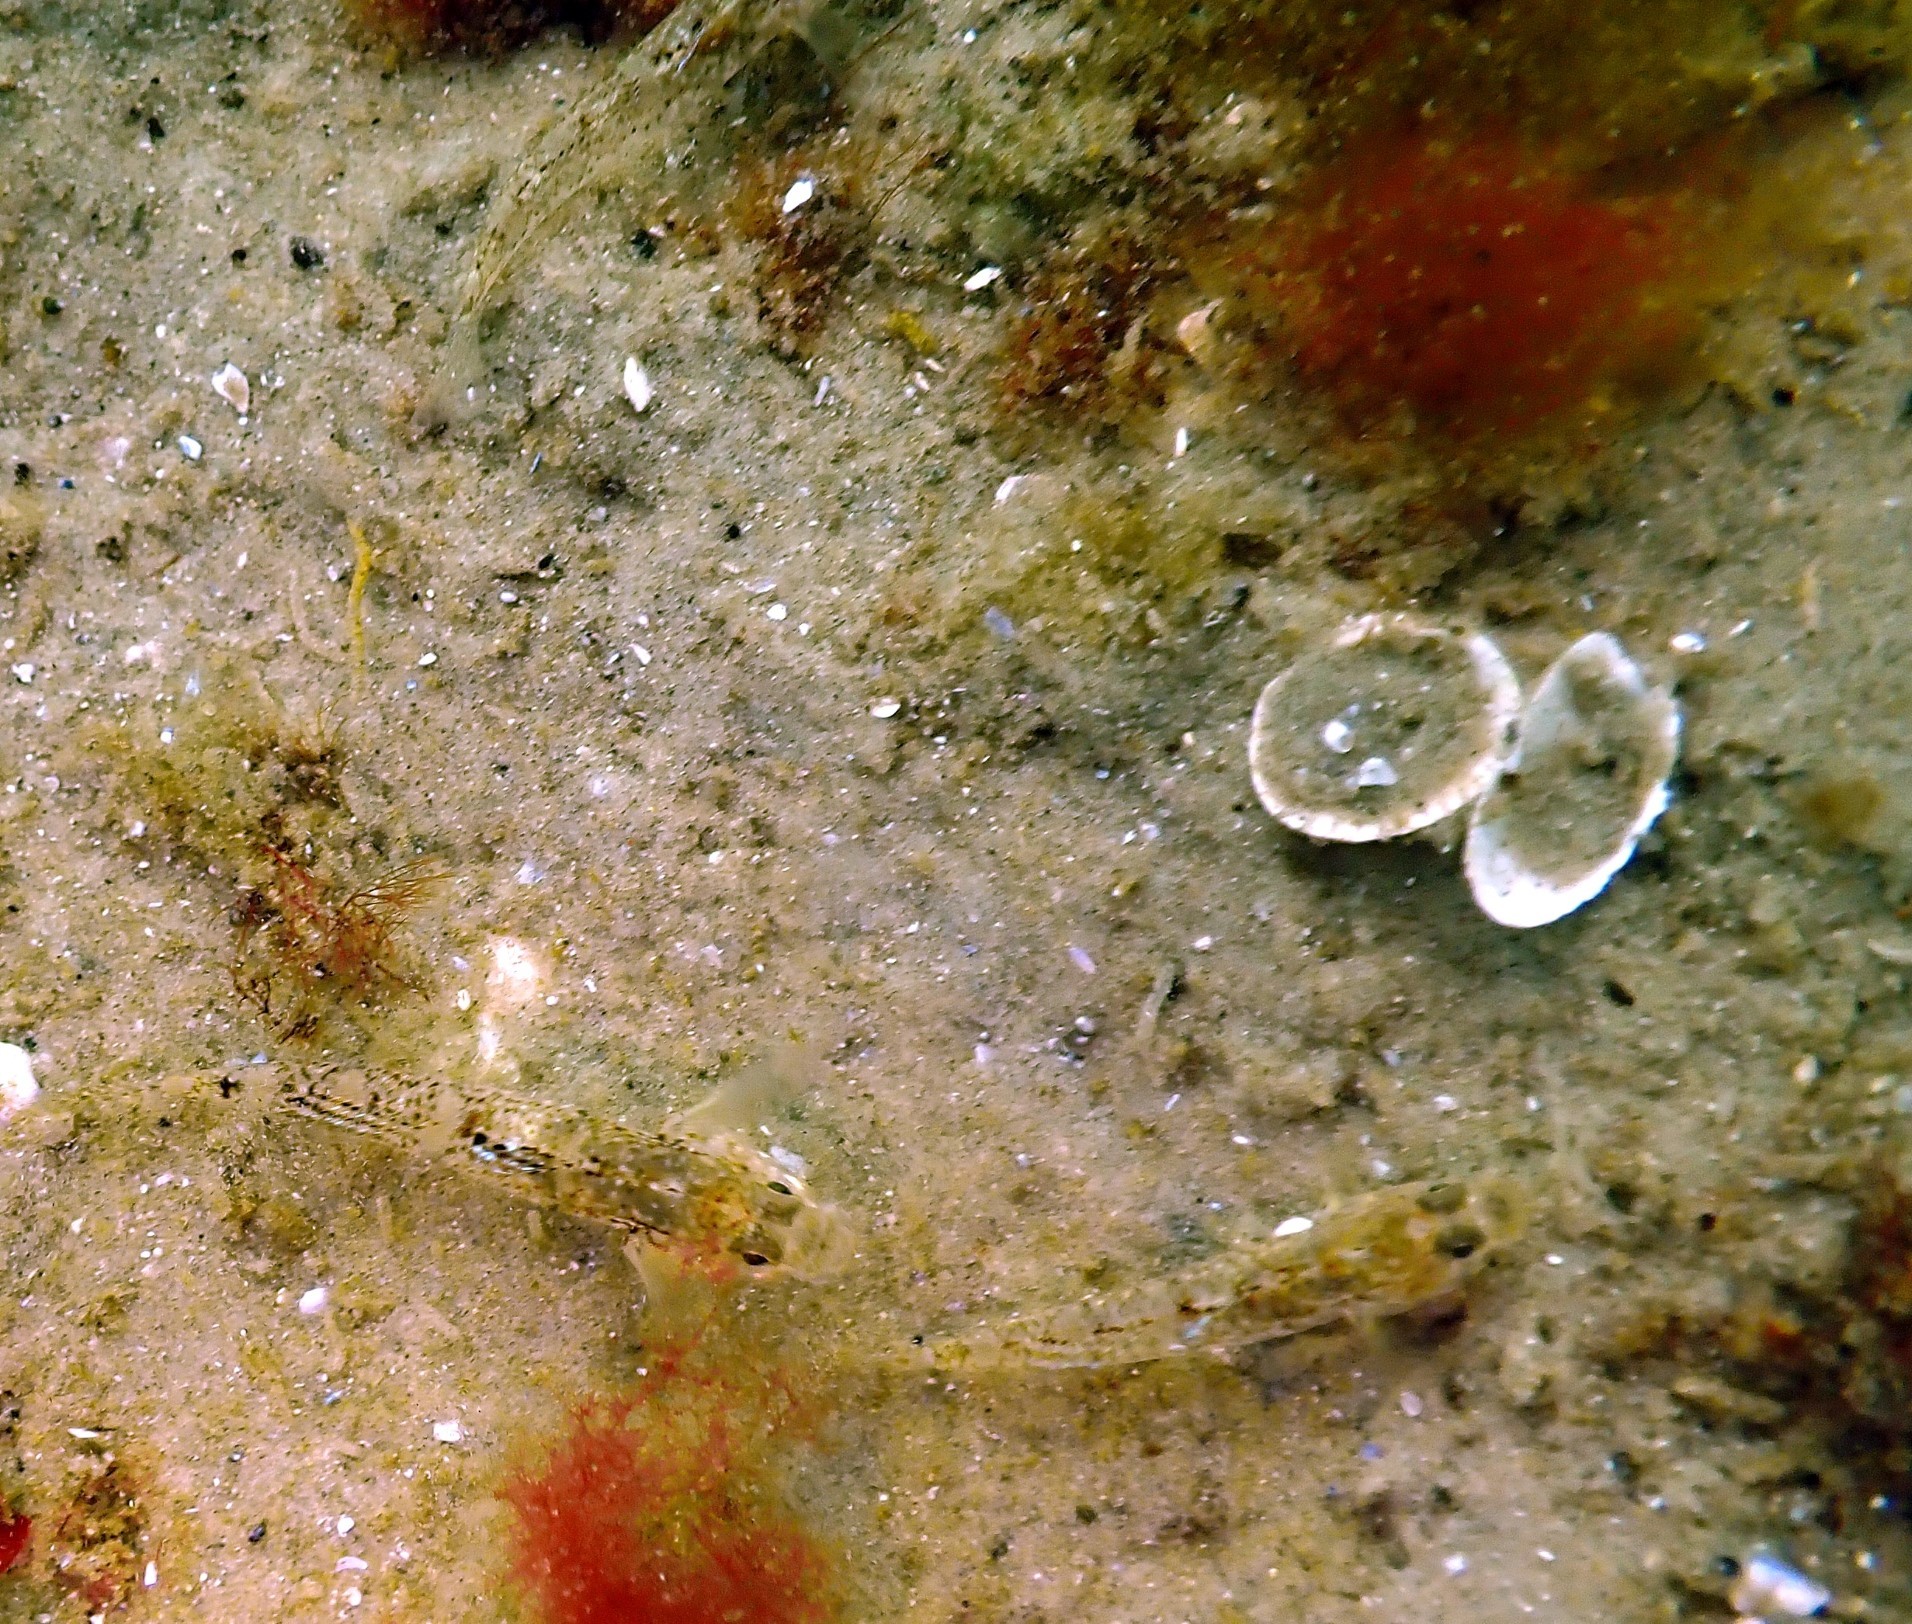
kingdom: Animalia
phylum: Chordata
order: Perciformes
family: Gobiidae
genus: Pomatoschistus
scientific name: Pomatoschistus pictus
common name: Painted goby
